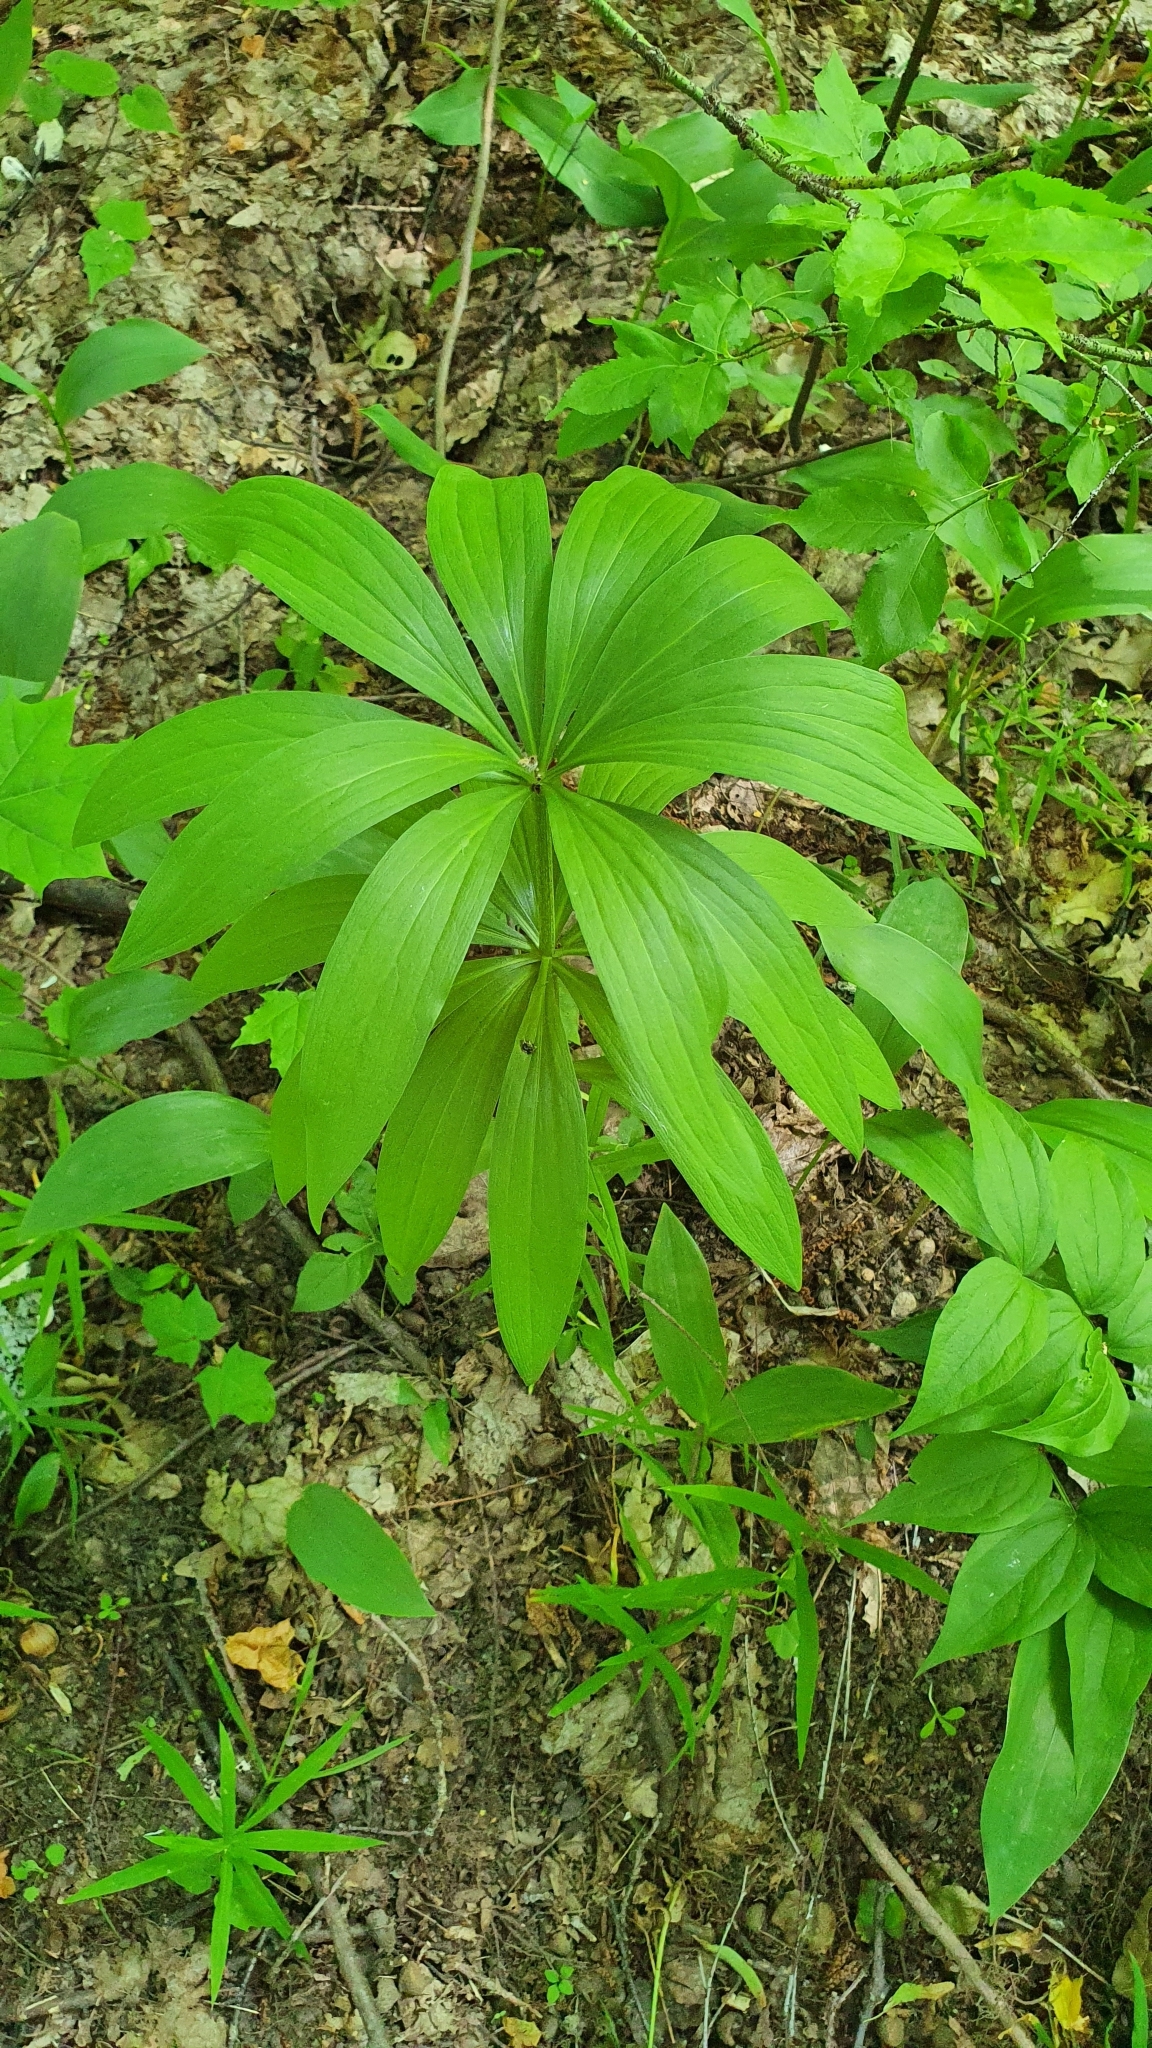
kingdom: Plantae
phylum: Tracheophyta
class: Liliopsida
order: Liliales
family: Liliaceae
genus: Lilium
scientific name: Lilium martagon
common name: Martagon lily
